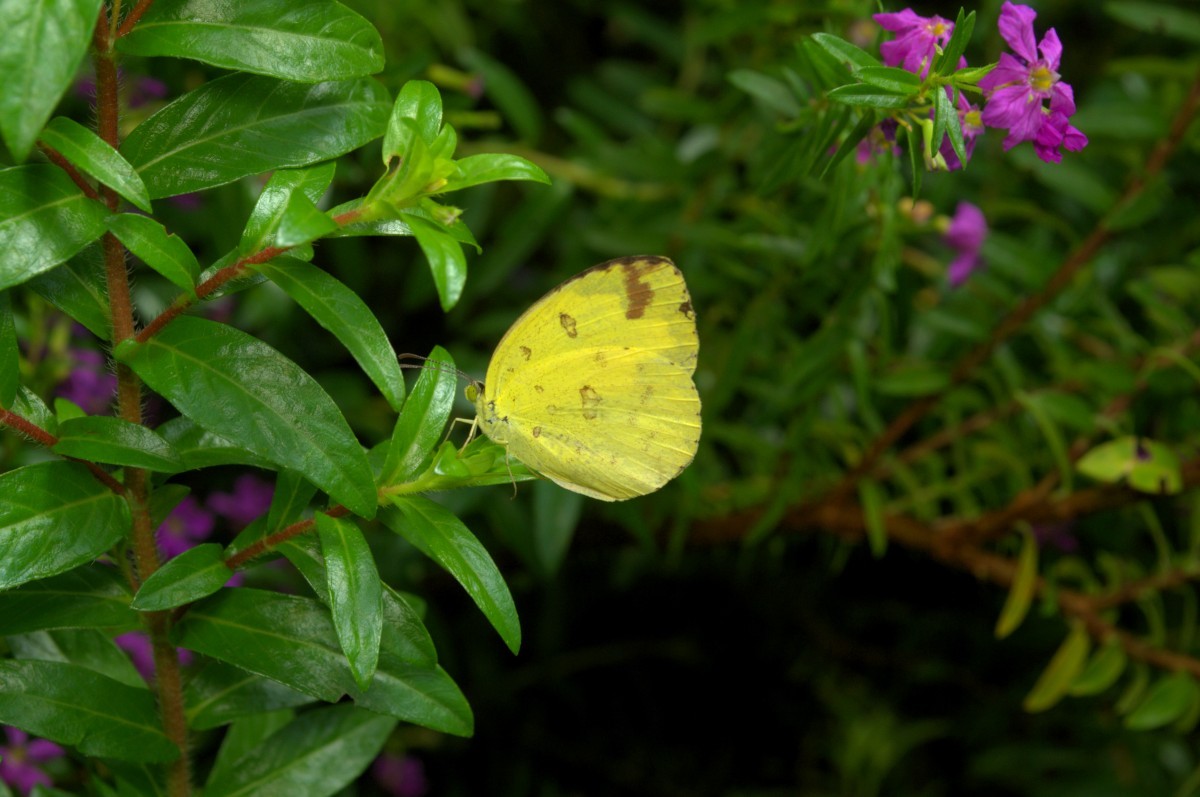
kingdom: Animalia
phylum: Arthropoda
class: Insecta
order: Lepidoptera
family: Pieridae
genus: Eurema
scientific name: Eurema hecabe
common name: Pale grass yellow
